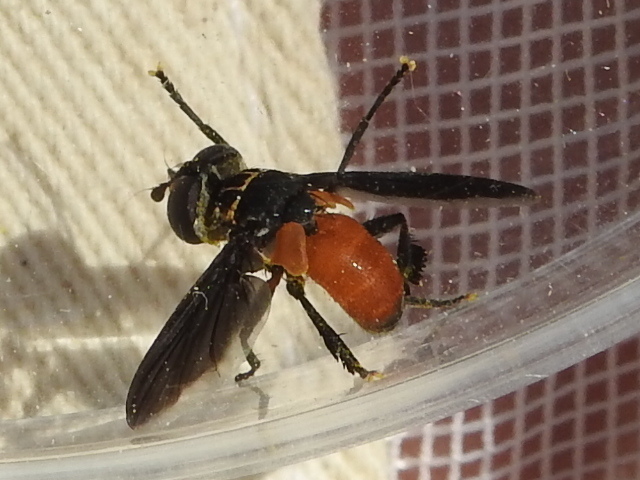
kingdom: Animalia
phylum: Arthropoda
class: Insecta
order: Diptera
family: Tachinidae
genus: Trichopoda
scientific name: Trichopoda pennipes
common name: Tachinid fly
